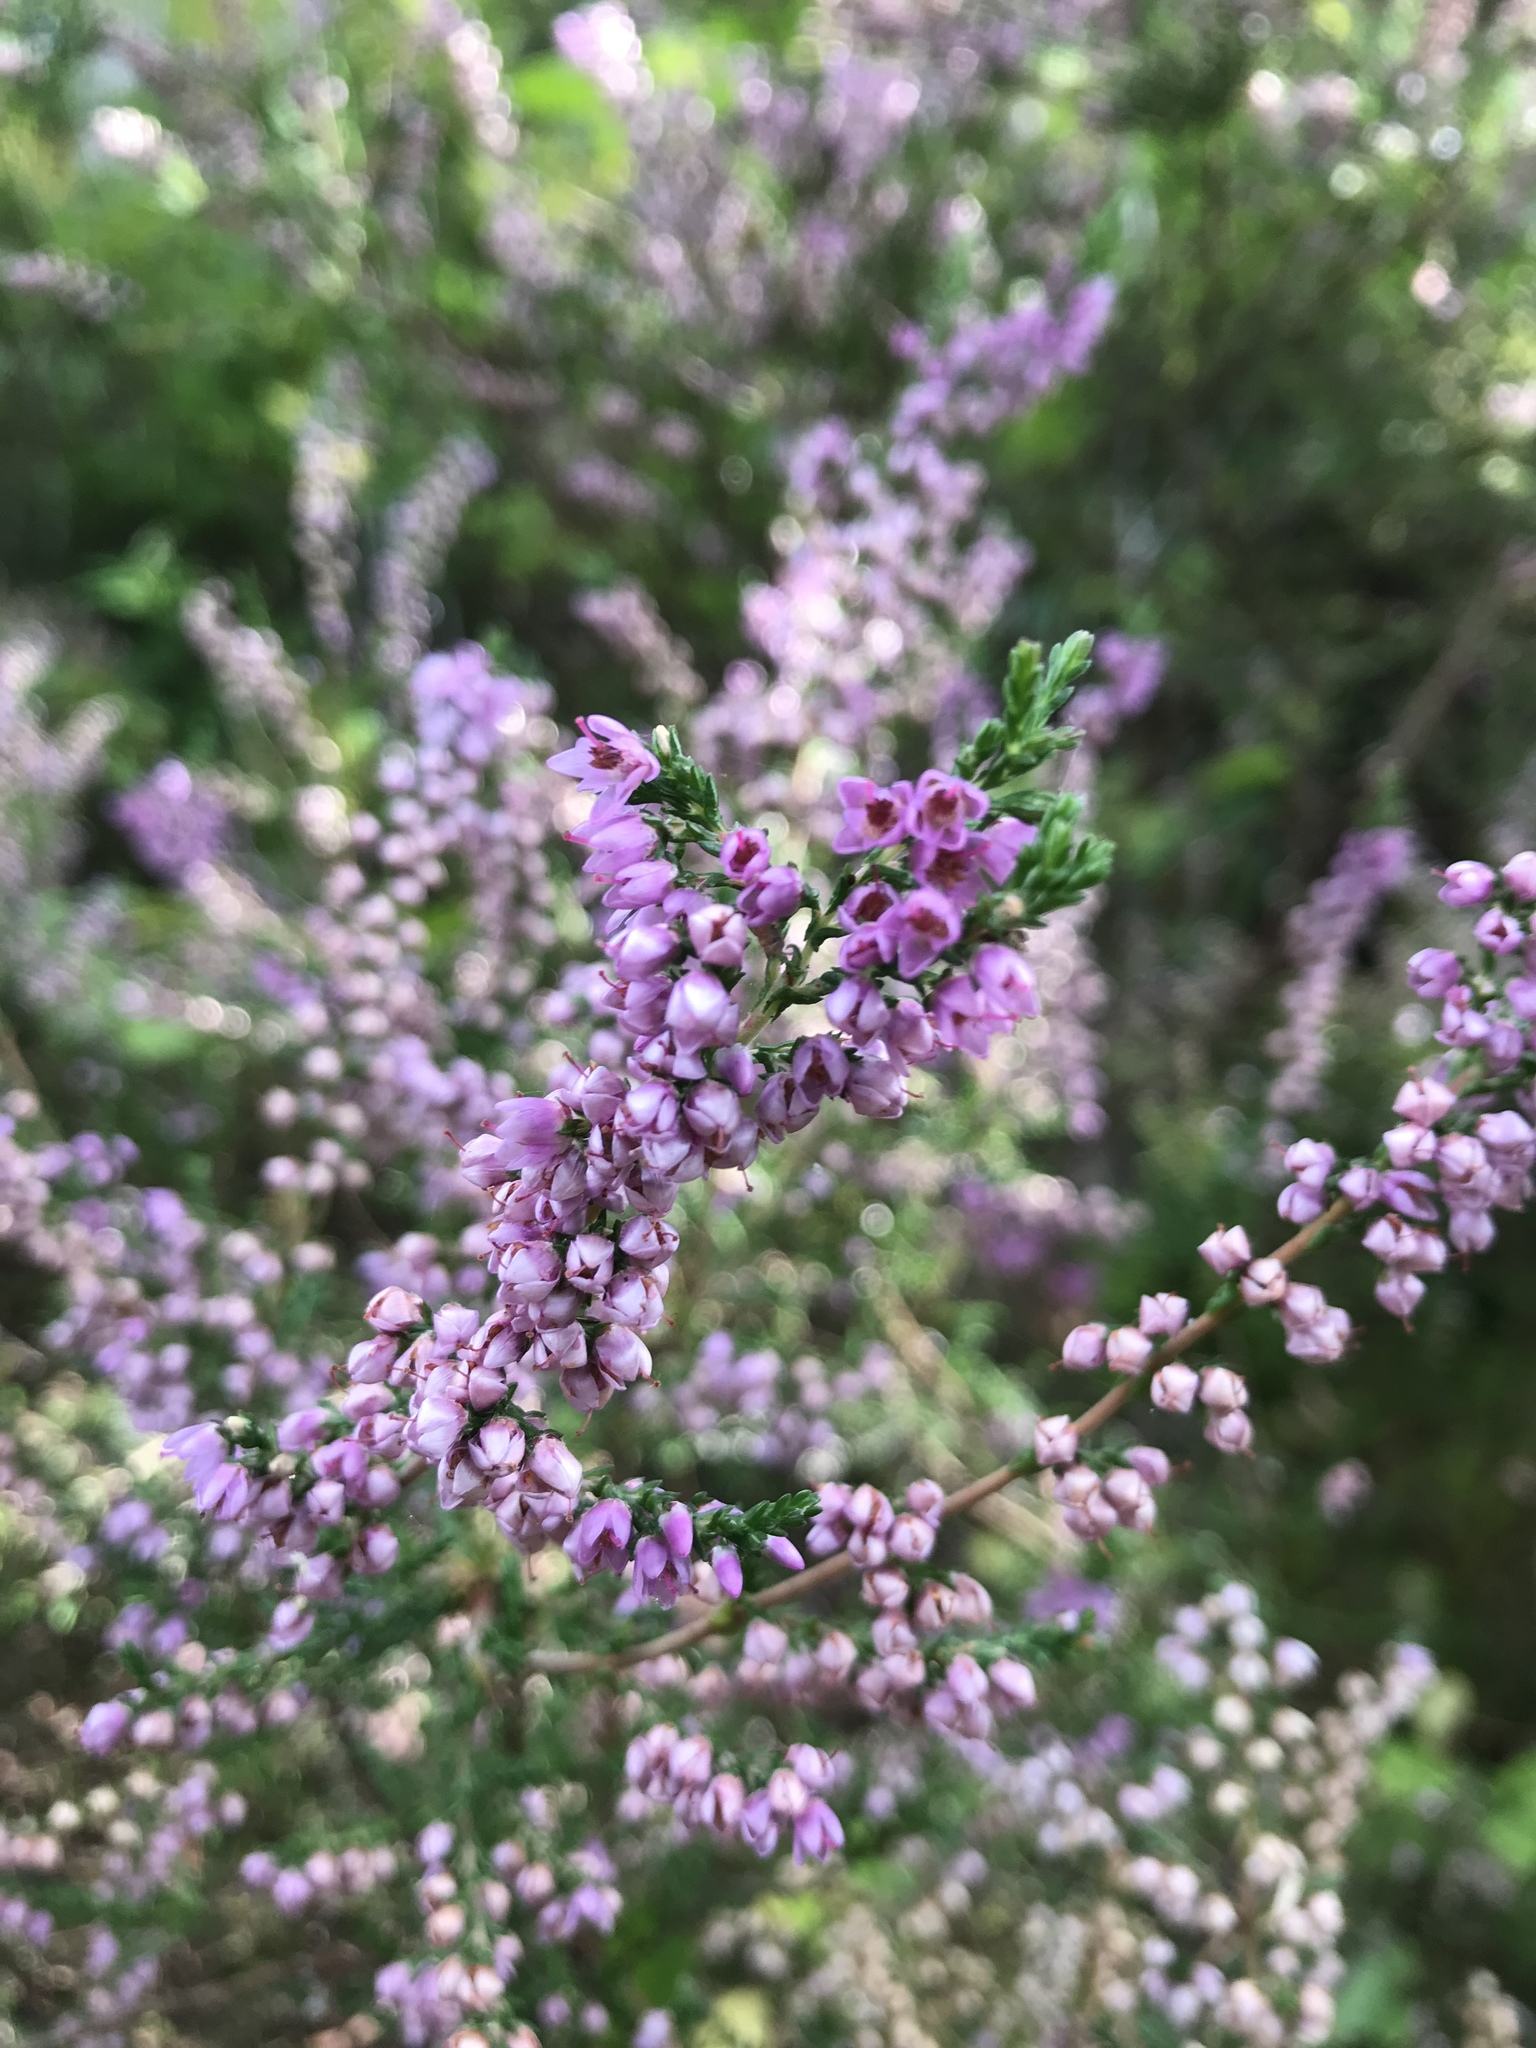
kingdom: Plantae
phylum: Tracheophyta
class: Magnoliopsida
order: Ericales
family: Ericaceae
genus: Calluna
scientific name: Calluna vulgaris
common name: Heather
